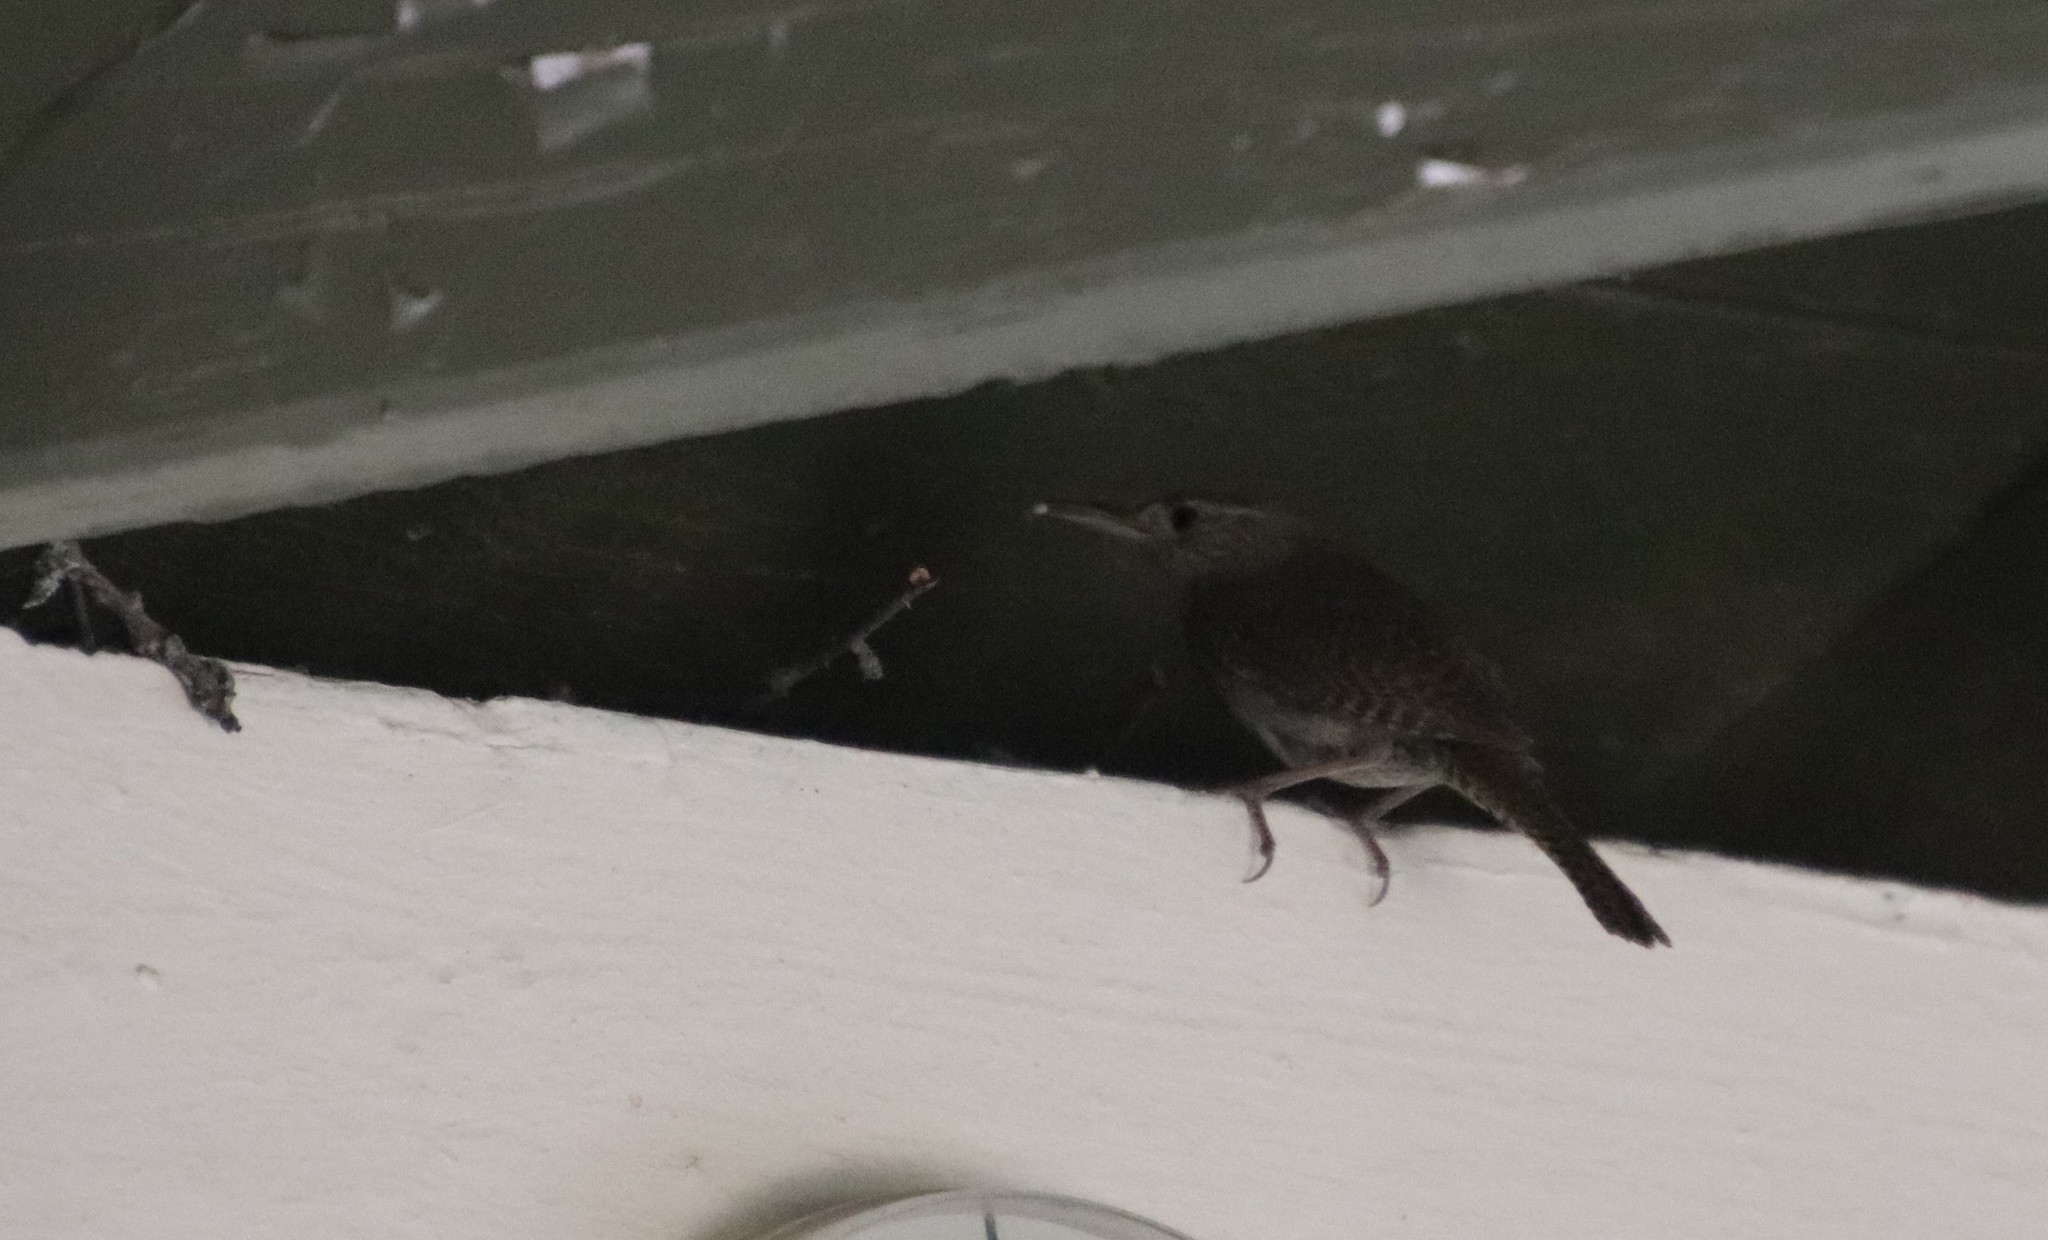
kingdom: Animalia
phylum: Chordata
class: Aves
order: Passeriformes
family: Troglodytidae
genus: Troglodytes
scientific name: Troglodytes aedon
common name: House wren
